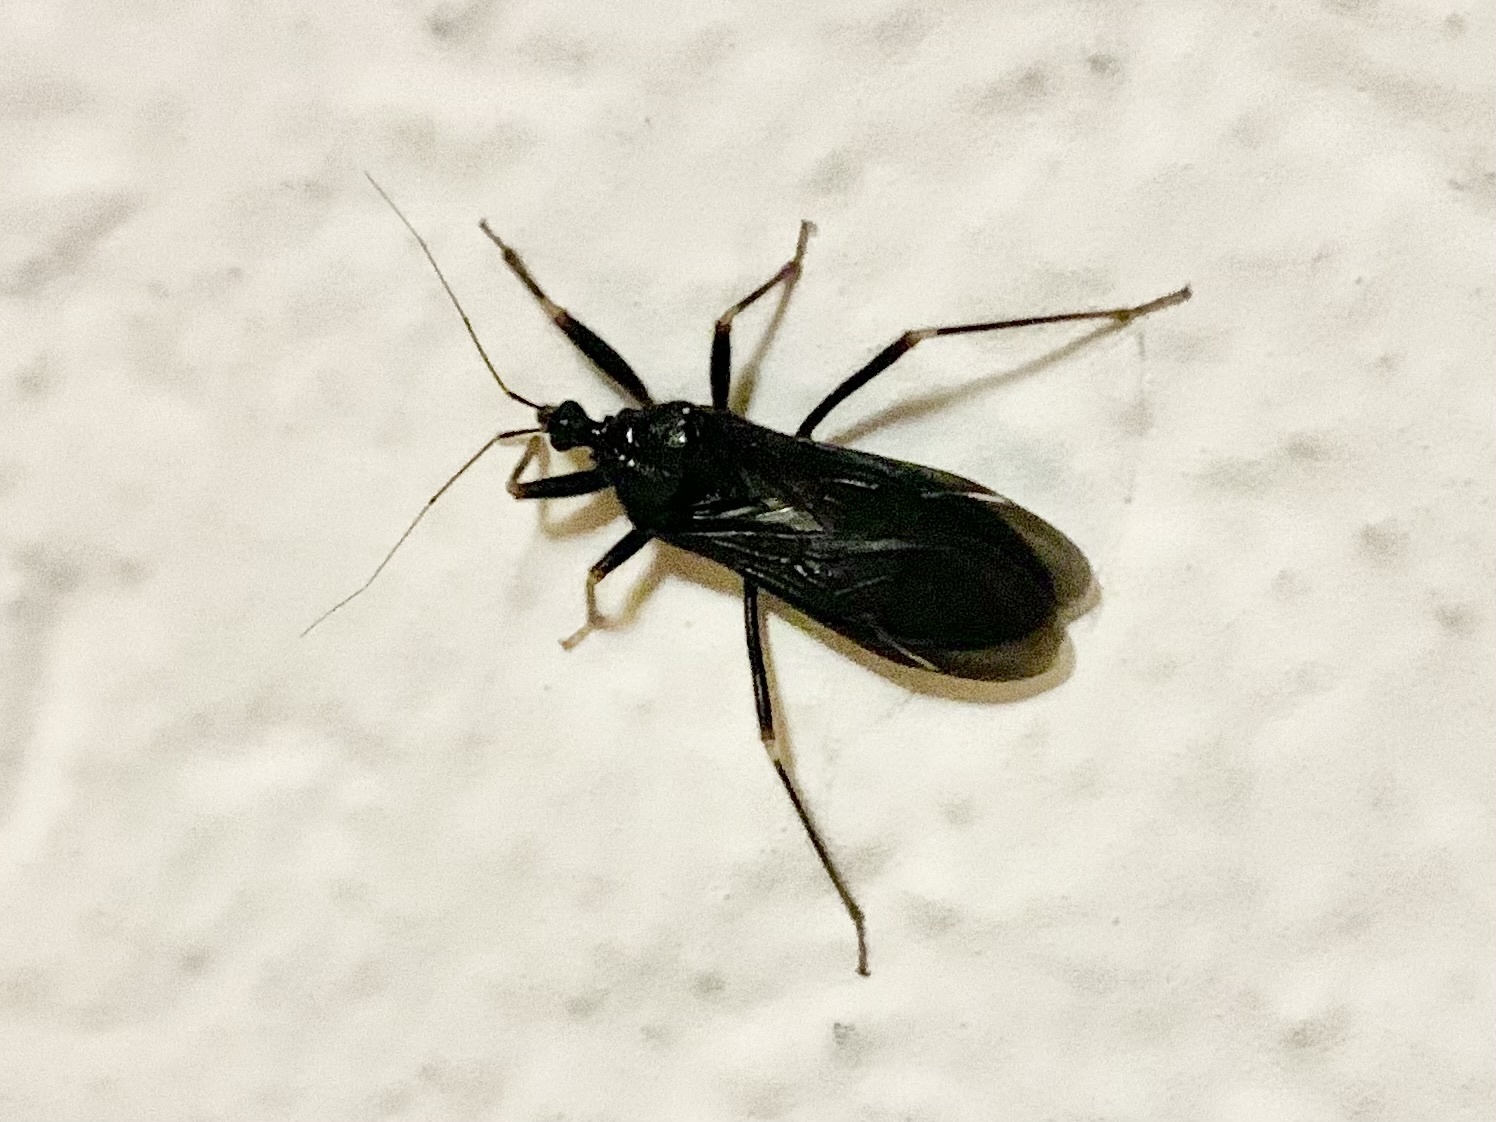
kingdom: Animalia
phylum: Arthropoda
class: Insecta
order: Hemiptera
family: Reduviidae
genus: Reduvius
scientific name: Reduvius personatus
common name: Masked hunter
